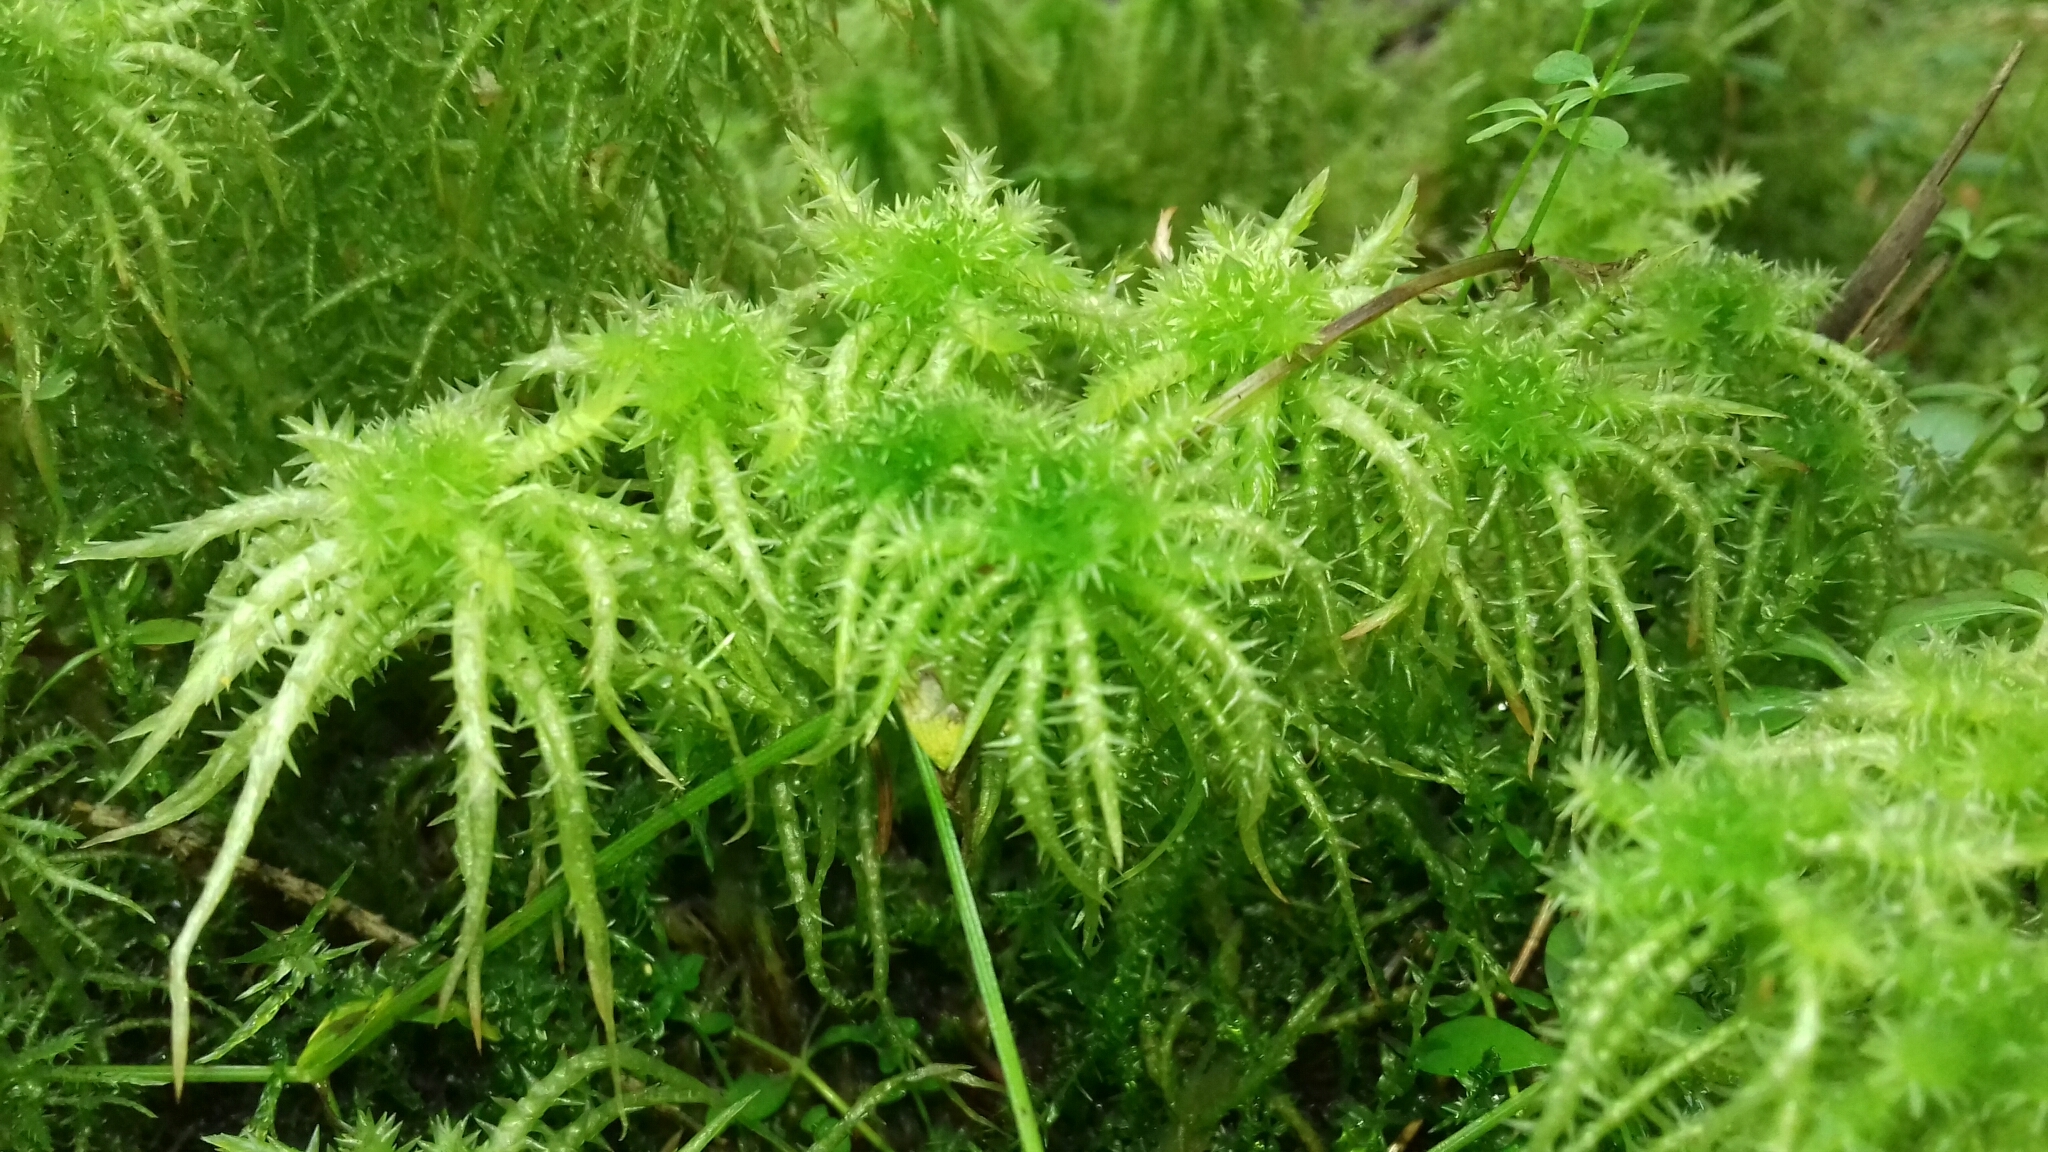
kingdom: Plantae
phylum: Bryophyta
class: Sphagnopsida
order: Sphagnales
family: Sphagnaceae
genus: Sphagnum
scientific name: Sphagnum squarrosum
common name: Shaggy peat moss
